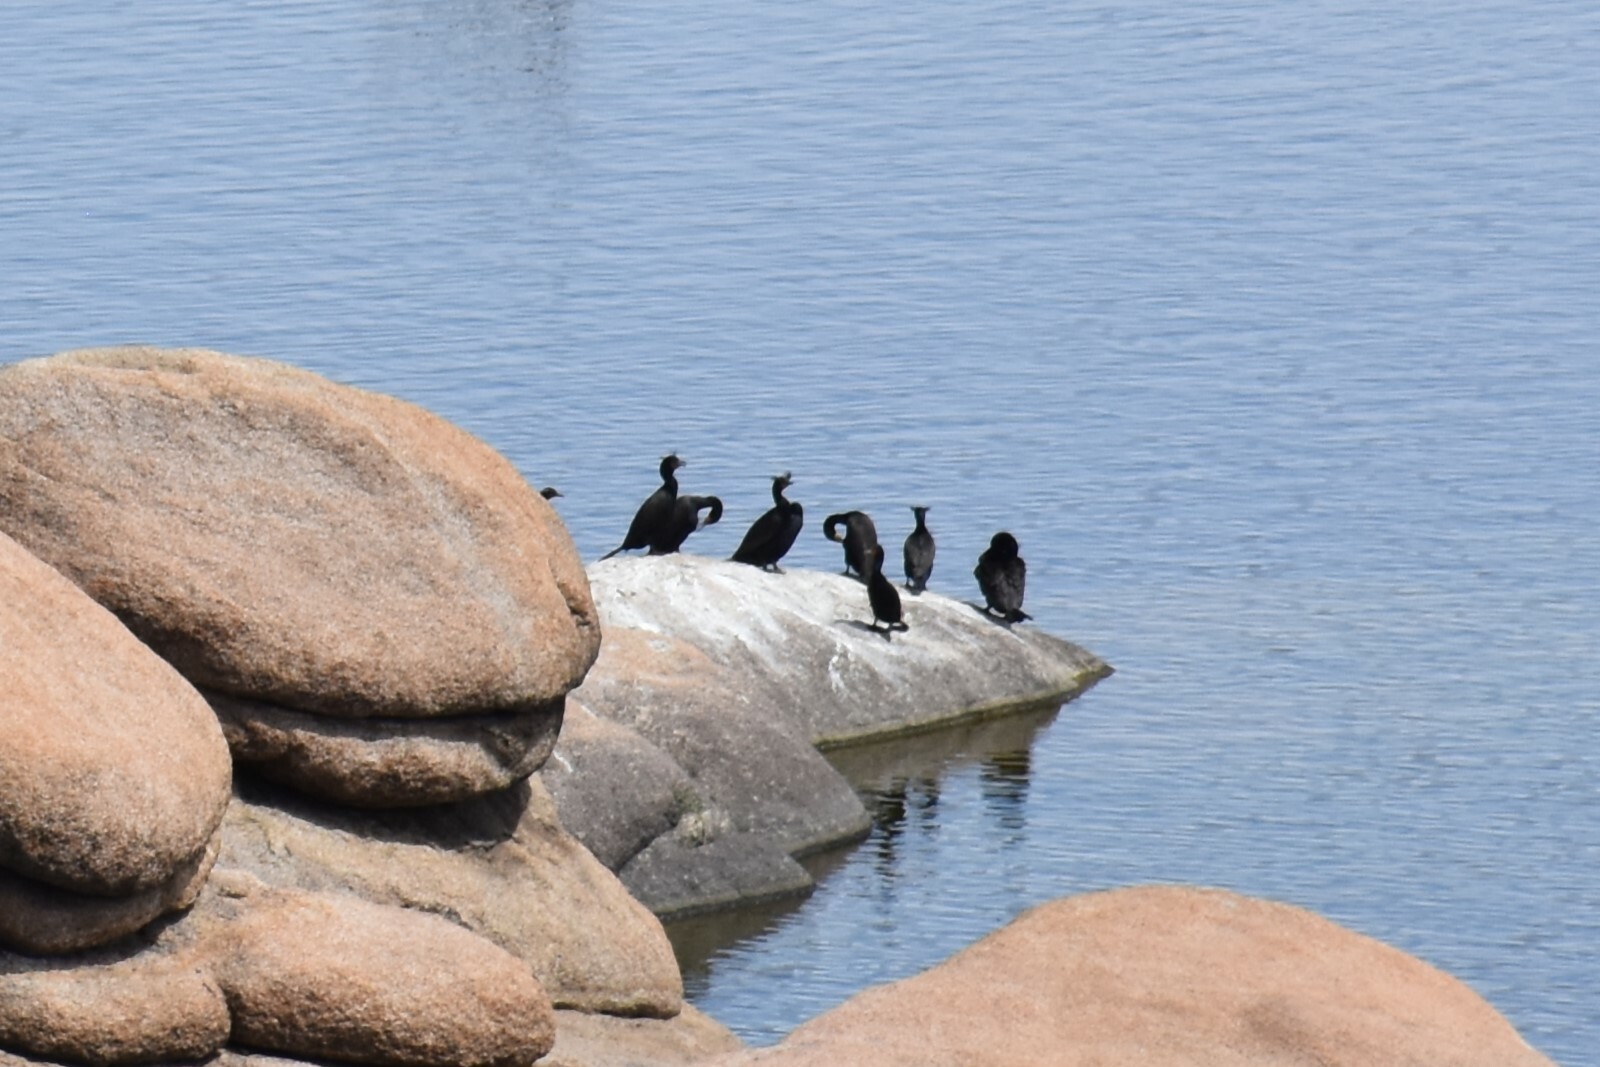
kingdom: Animalia
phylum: Chordata
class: Aves
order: Suliformes
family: Phalacrocoracidae
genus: Phalacrocorax
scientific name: Phalacrocorax auritus
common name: Double-crested cormorant
